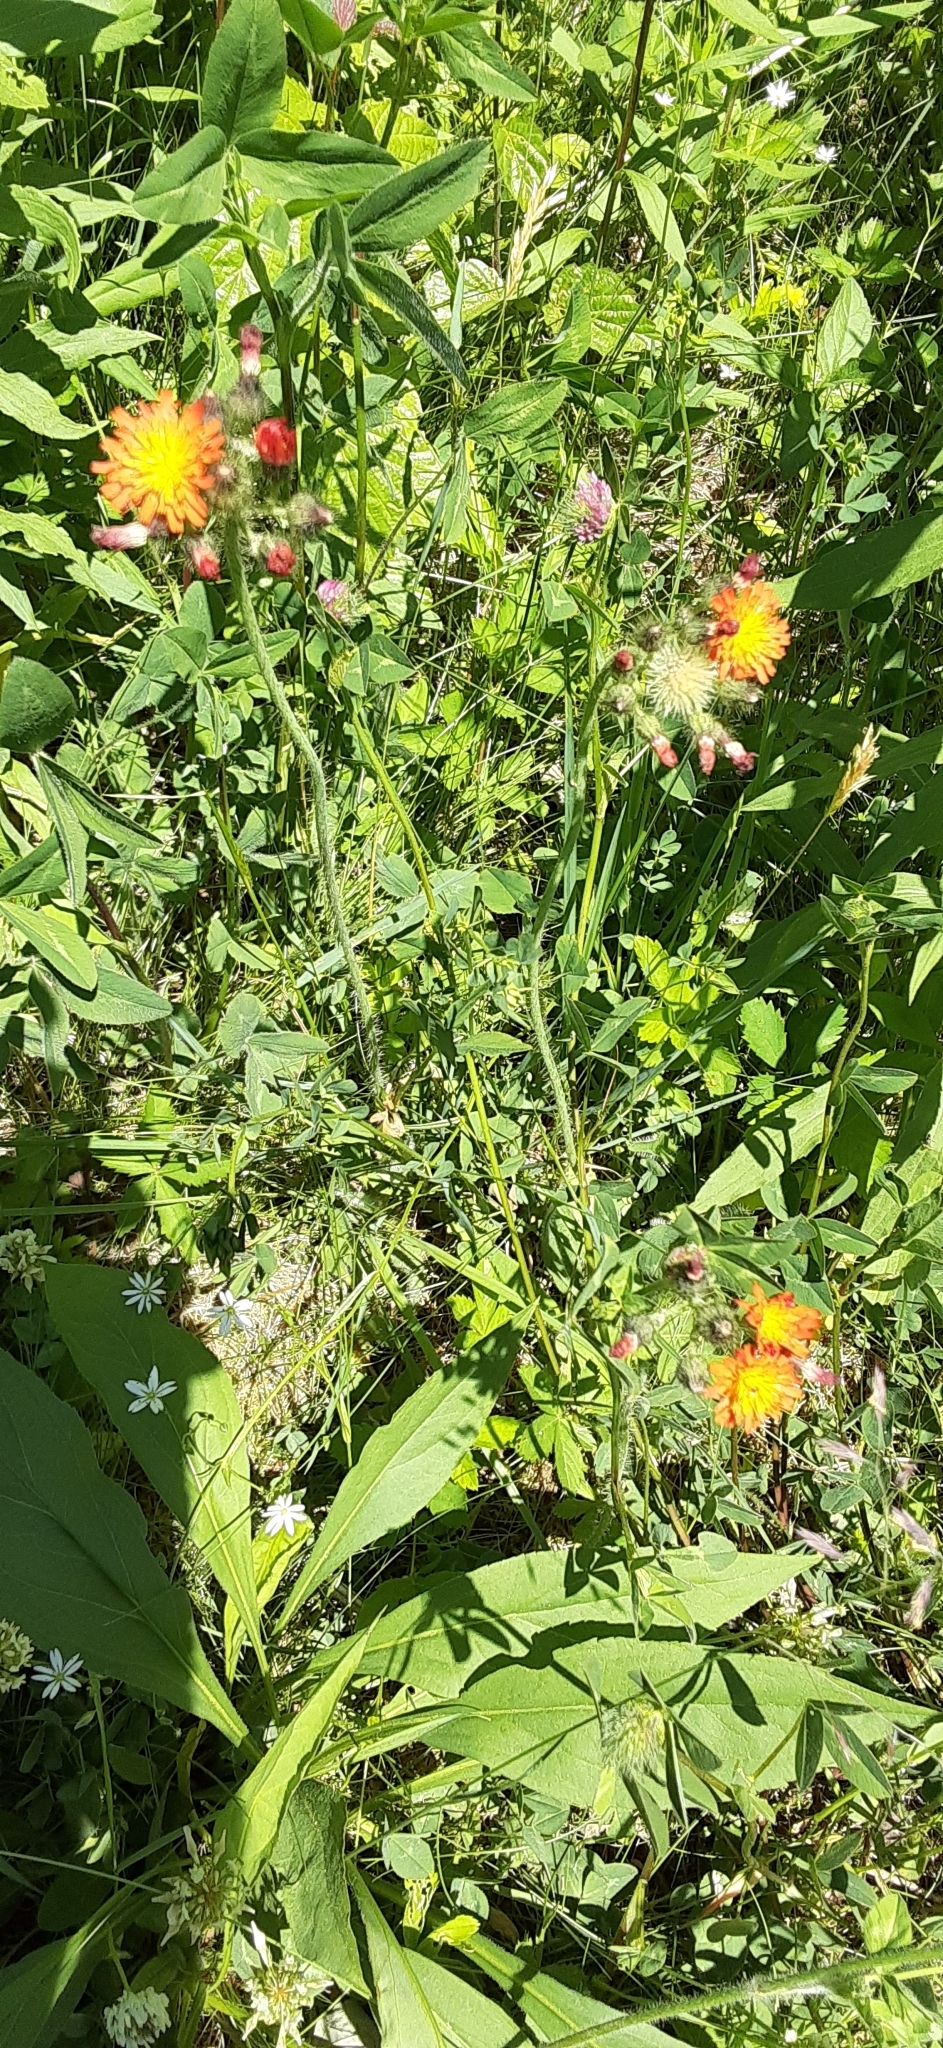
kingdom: Plantae
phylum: Tracheophyta
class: Magnoliopsida
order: Asterales
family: Asteraceae
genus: Pilosella
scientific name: Pilosella aurantiaca
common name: Fox-and-cubs
